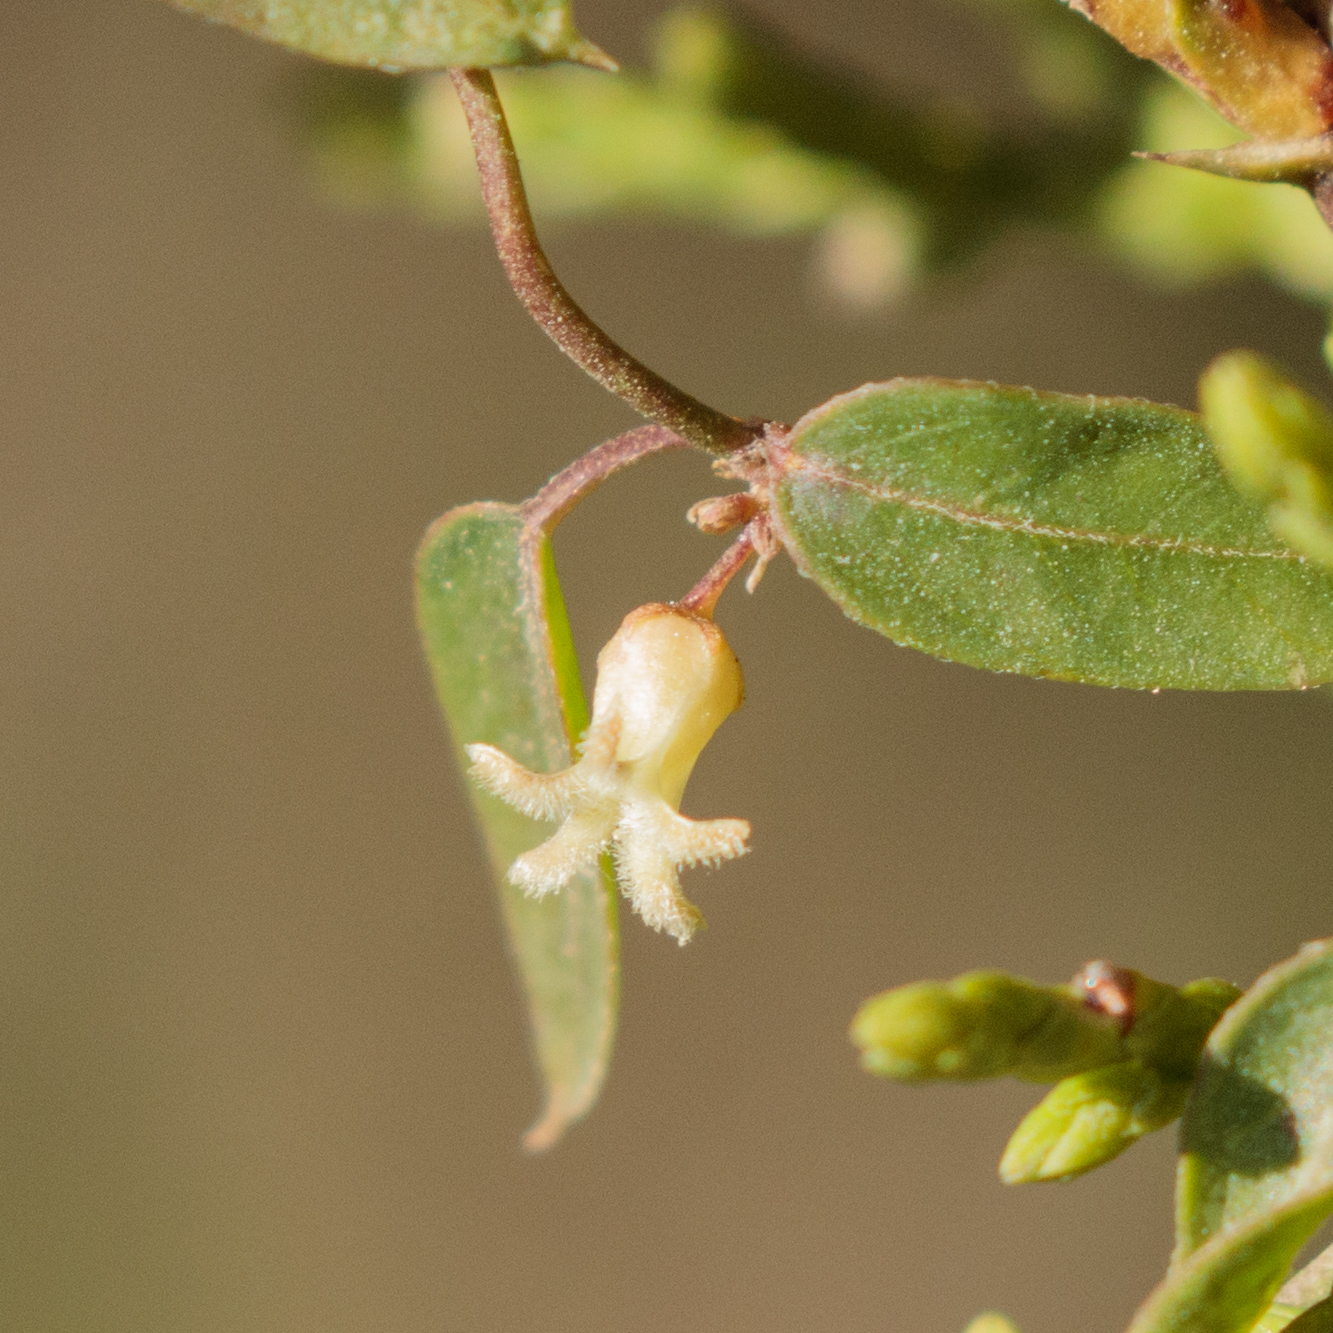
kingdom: Plantae
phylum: Tracheophyta
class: Magnoliopsida
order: Gentianales
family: Apocynaceae
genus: Metastelma
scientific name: Metastelma barbigerum
